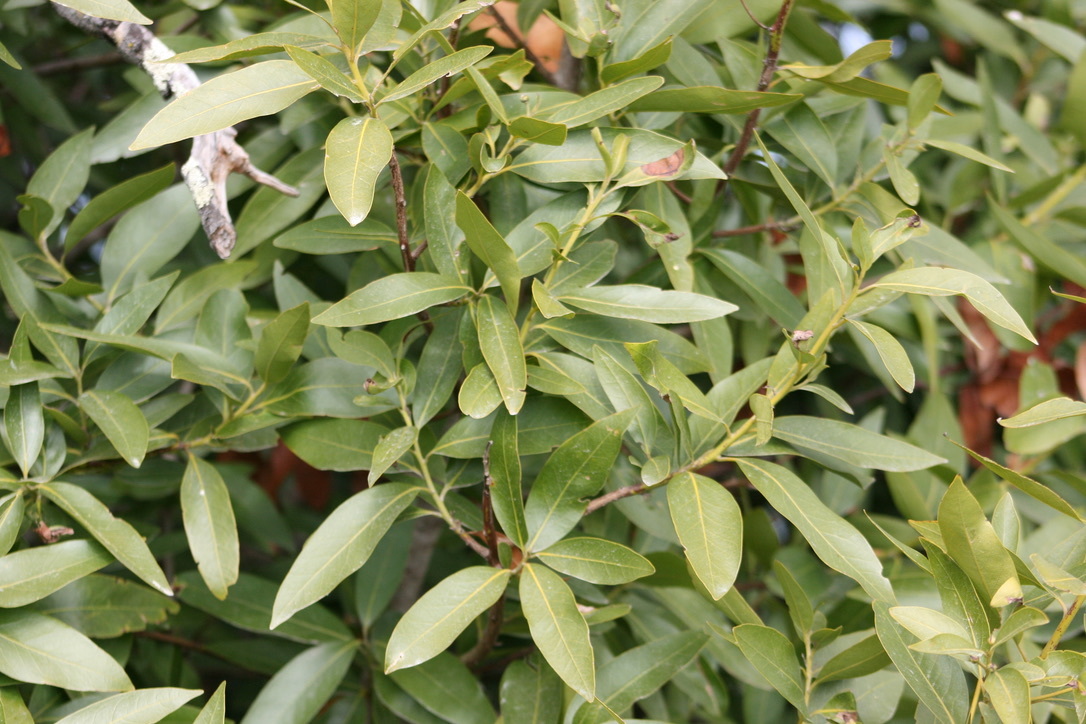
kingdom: Plantae
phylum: Tracheophyta
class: Magnoliopsida
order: Laurales
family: Lauraceae
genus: Umbellularia
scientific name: Umbellularia californica
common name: California bay
